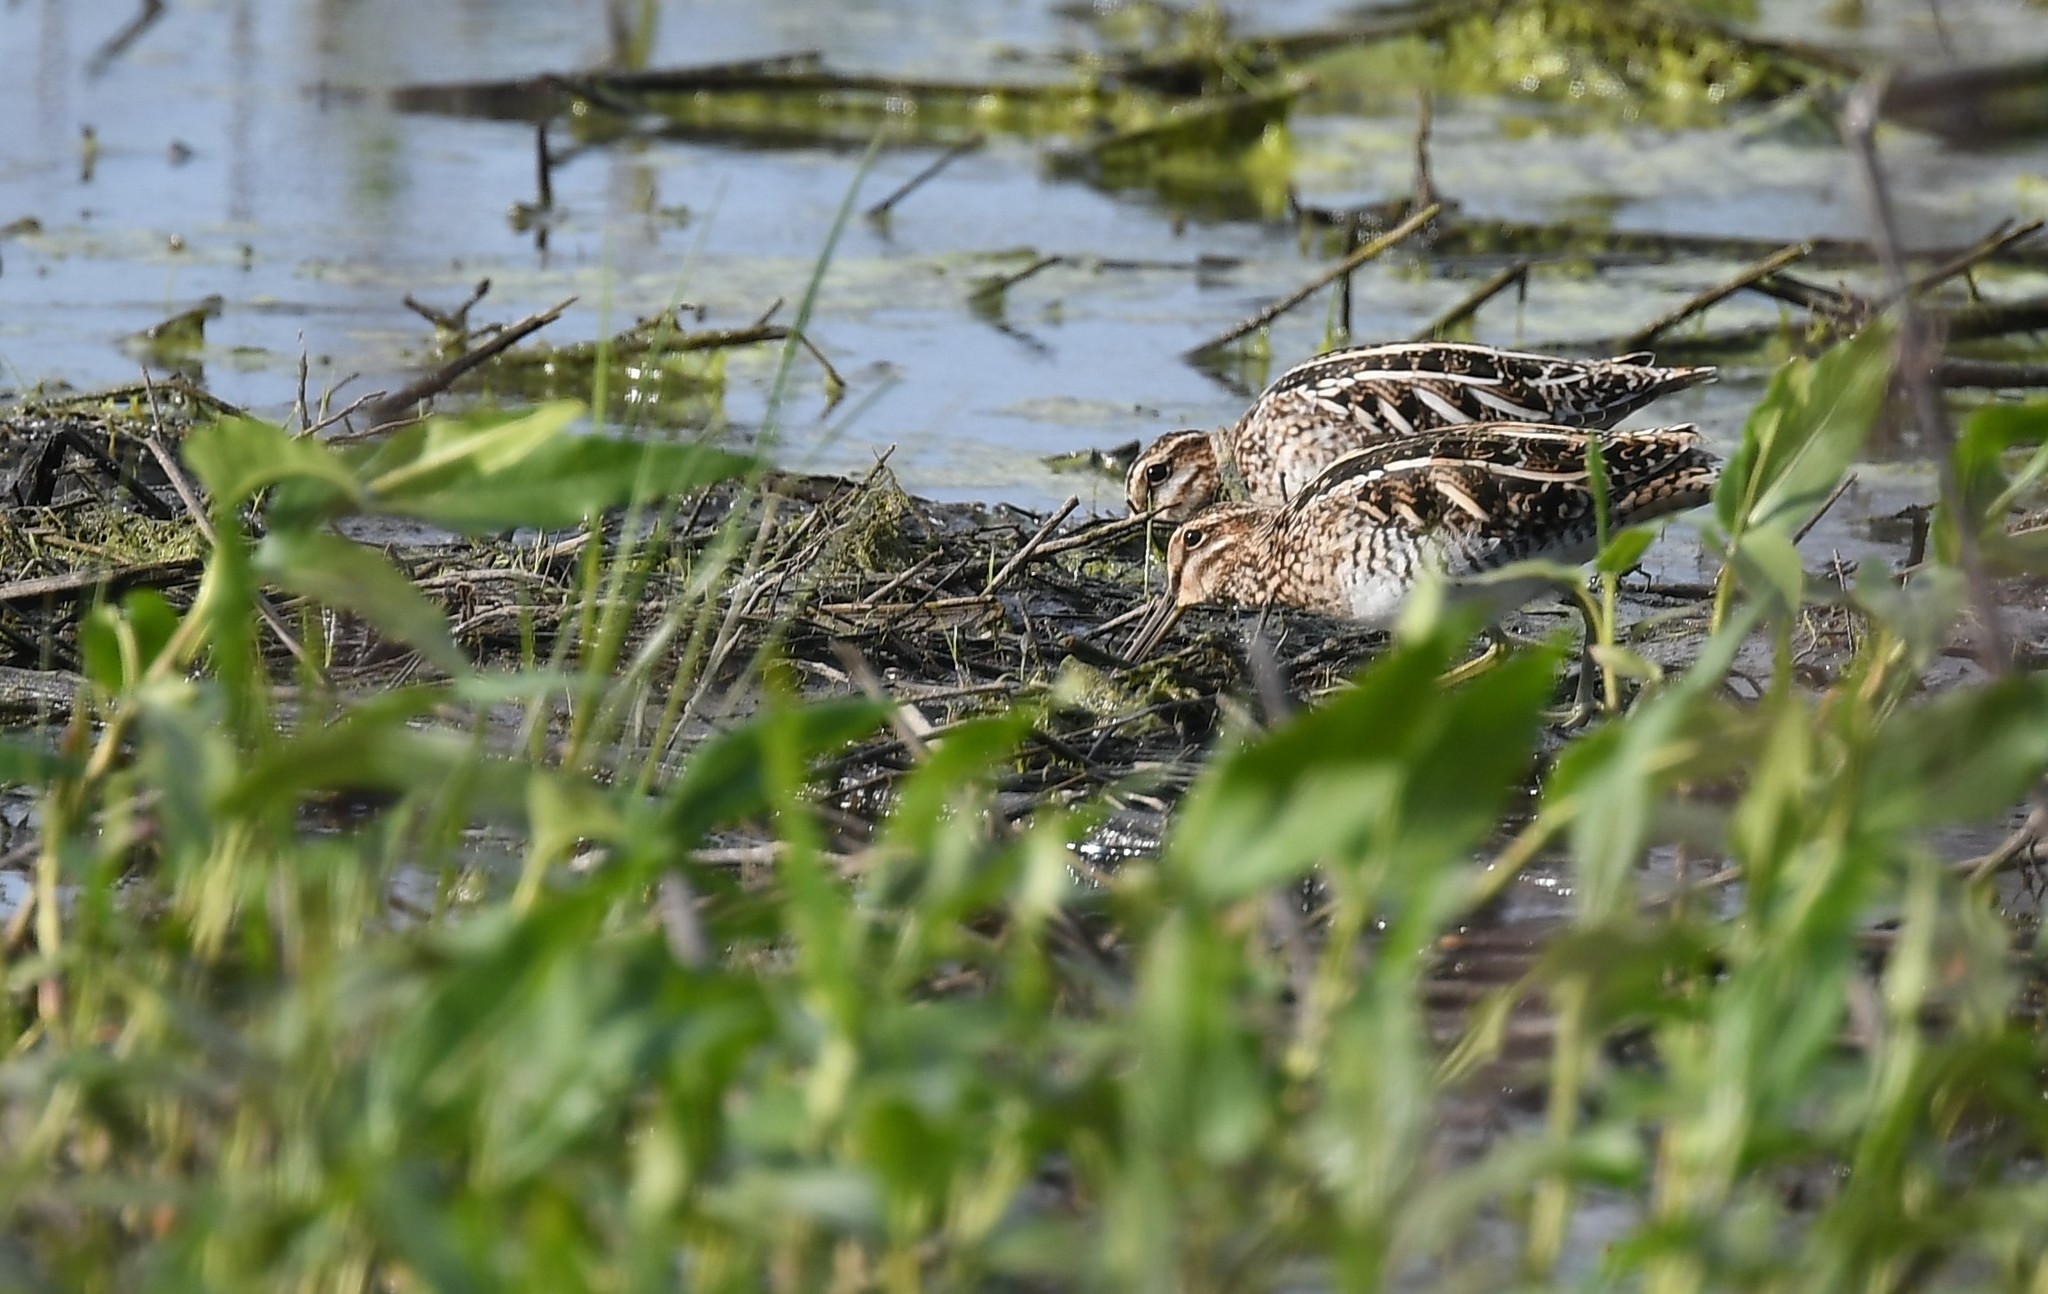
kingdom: Animalia
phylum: Chordata
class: Aves
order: Charadriiformes
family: Scolopacidae
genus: Gallinago
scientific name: Gallinago delicata
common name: Wilson's snipe
